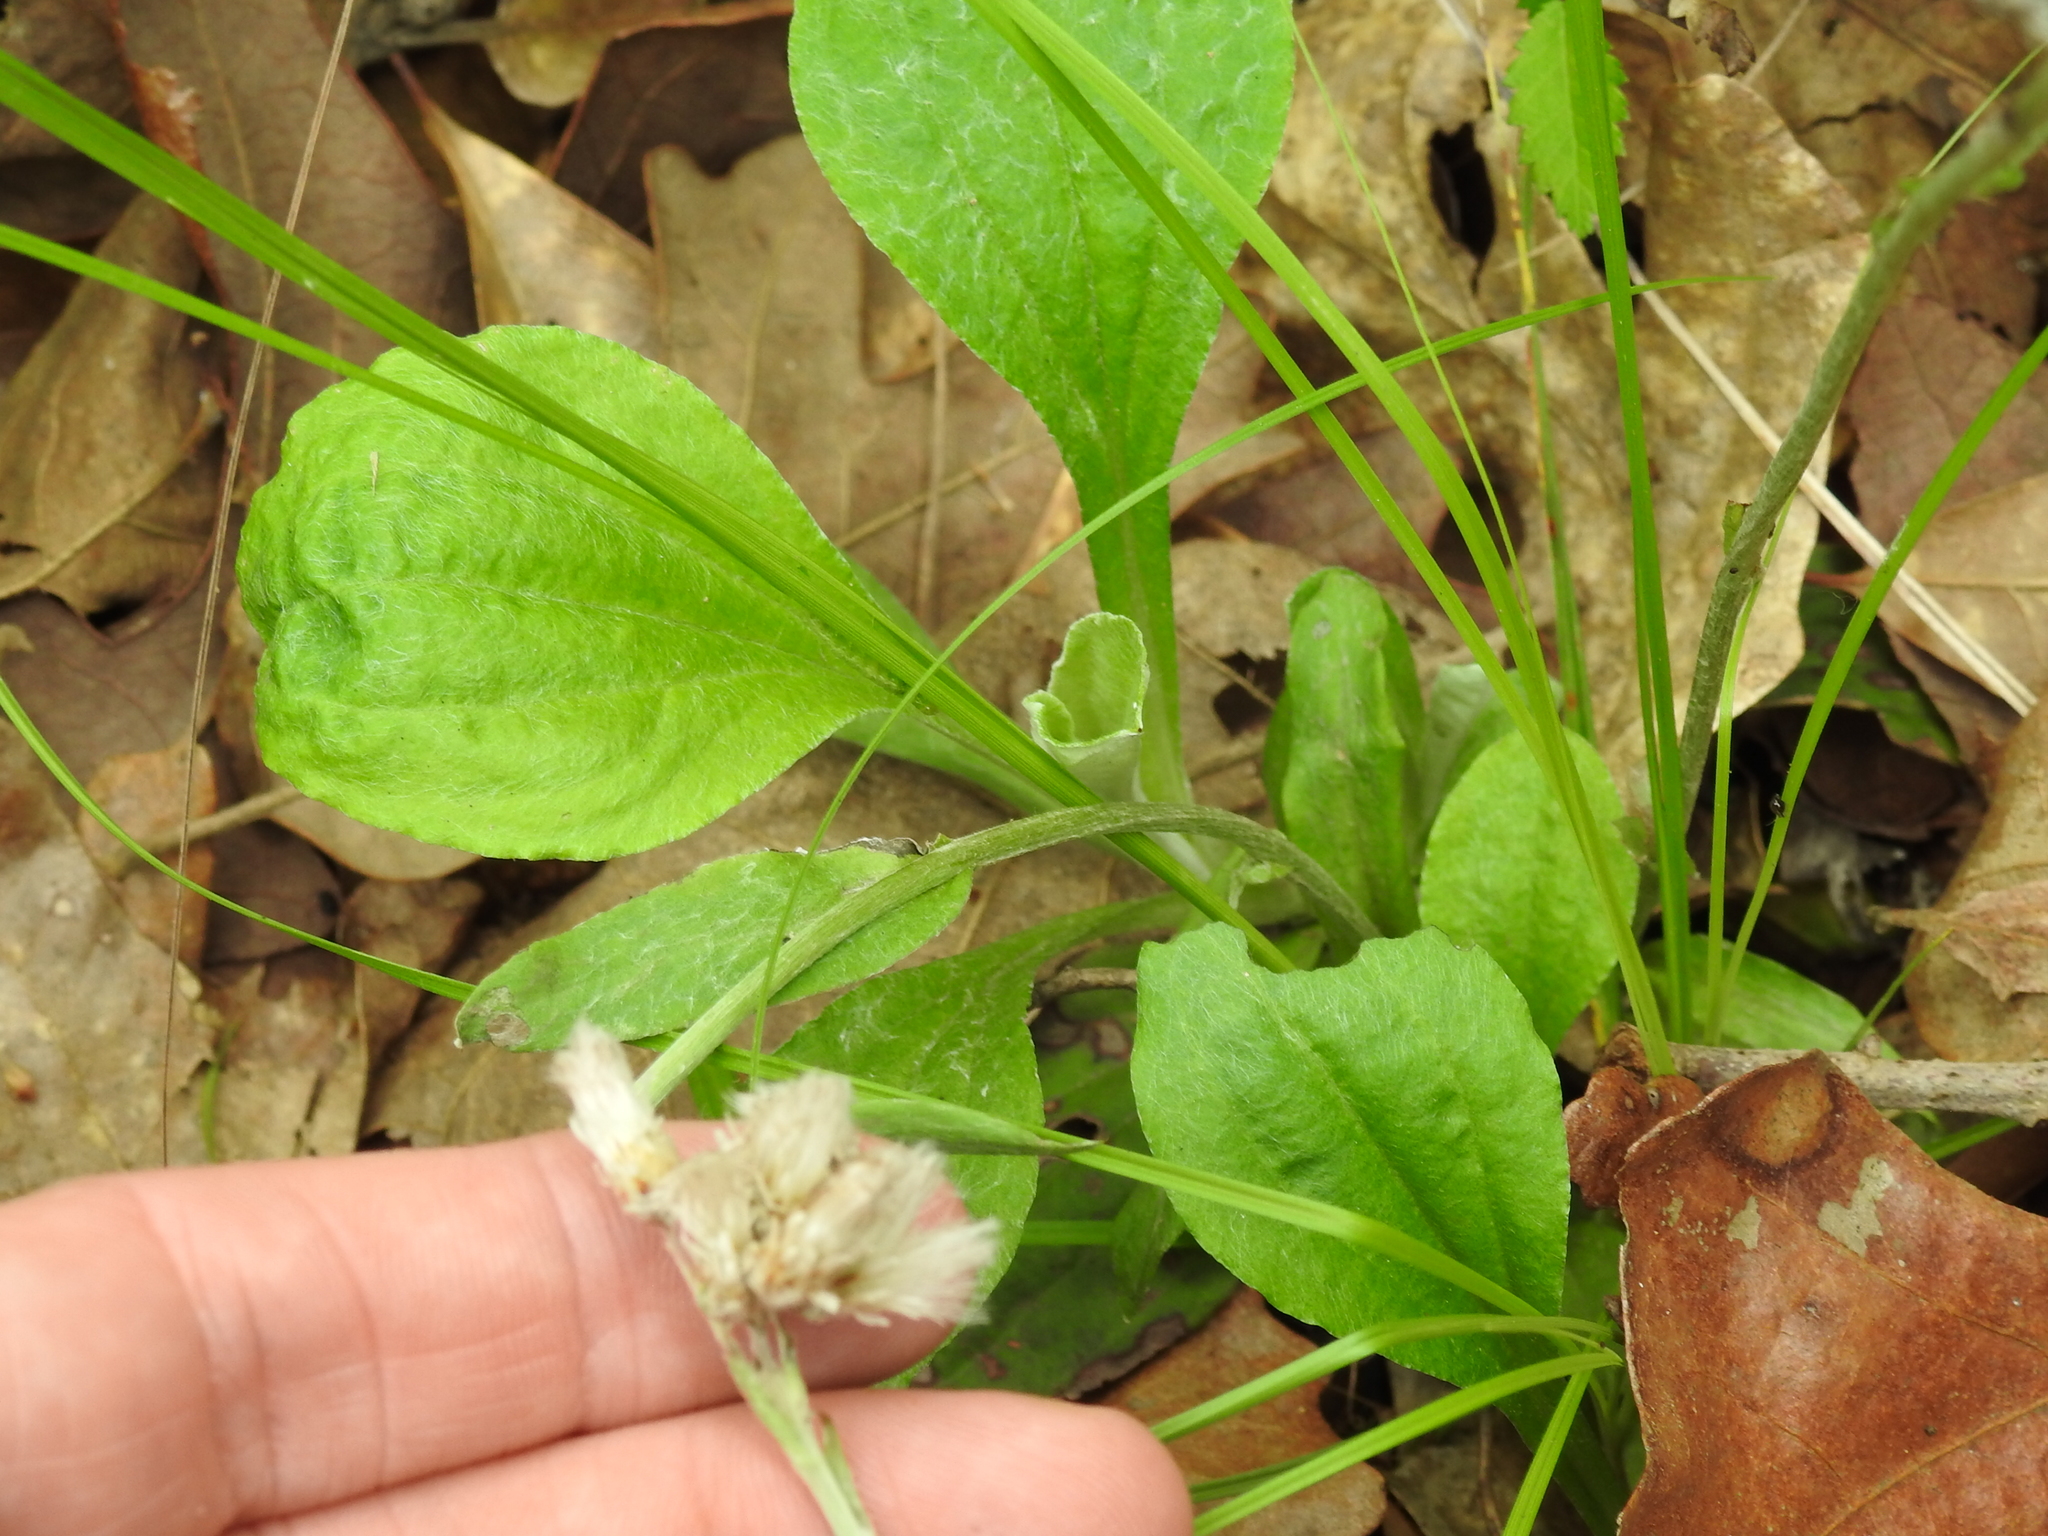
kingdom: Plantae
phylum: Tracheophyta
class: Magnoliopsida
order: Asterales
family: Asteraceae
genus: Antennaria
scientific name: Antennaria parlinii
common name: Parlin's pussytoes
